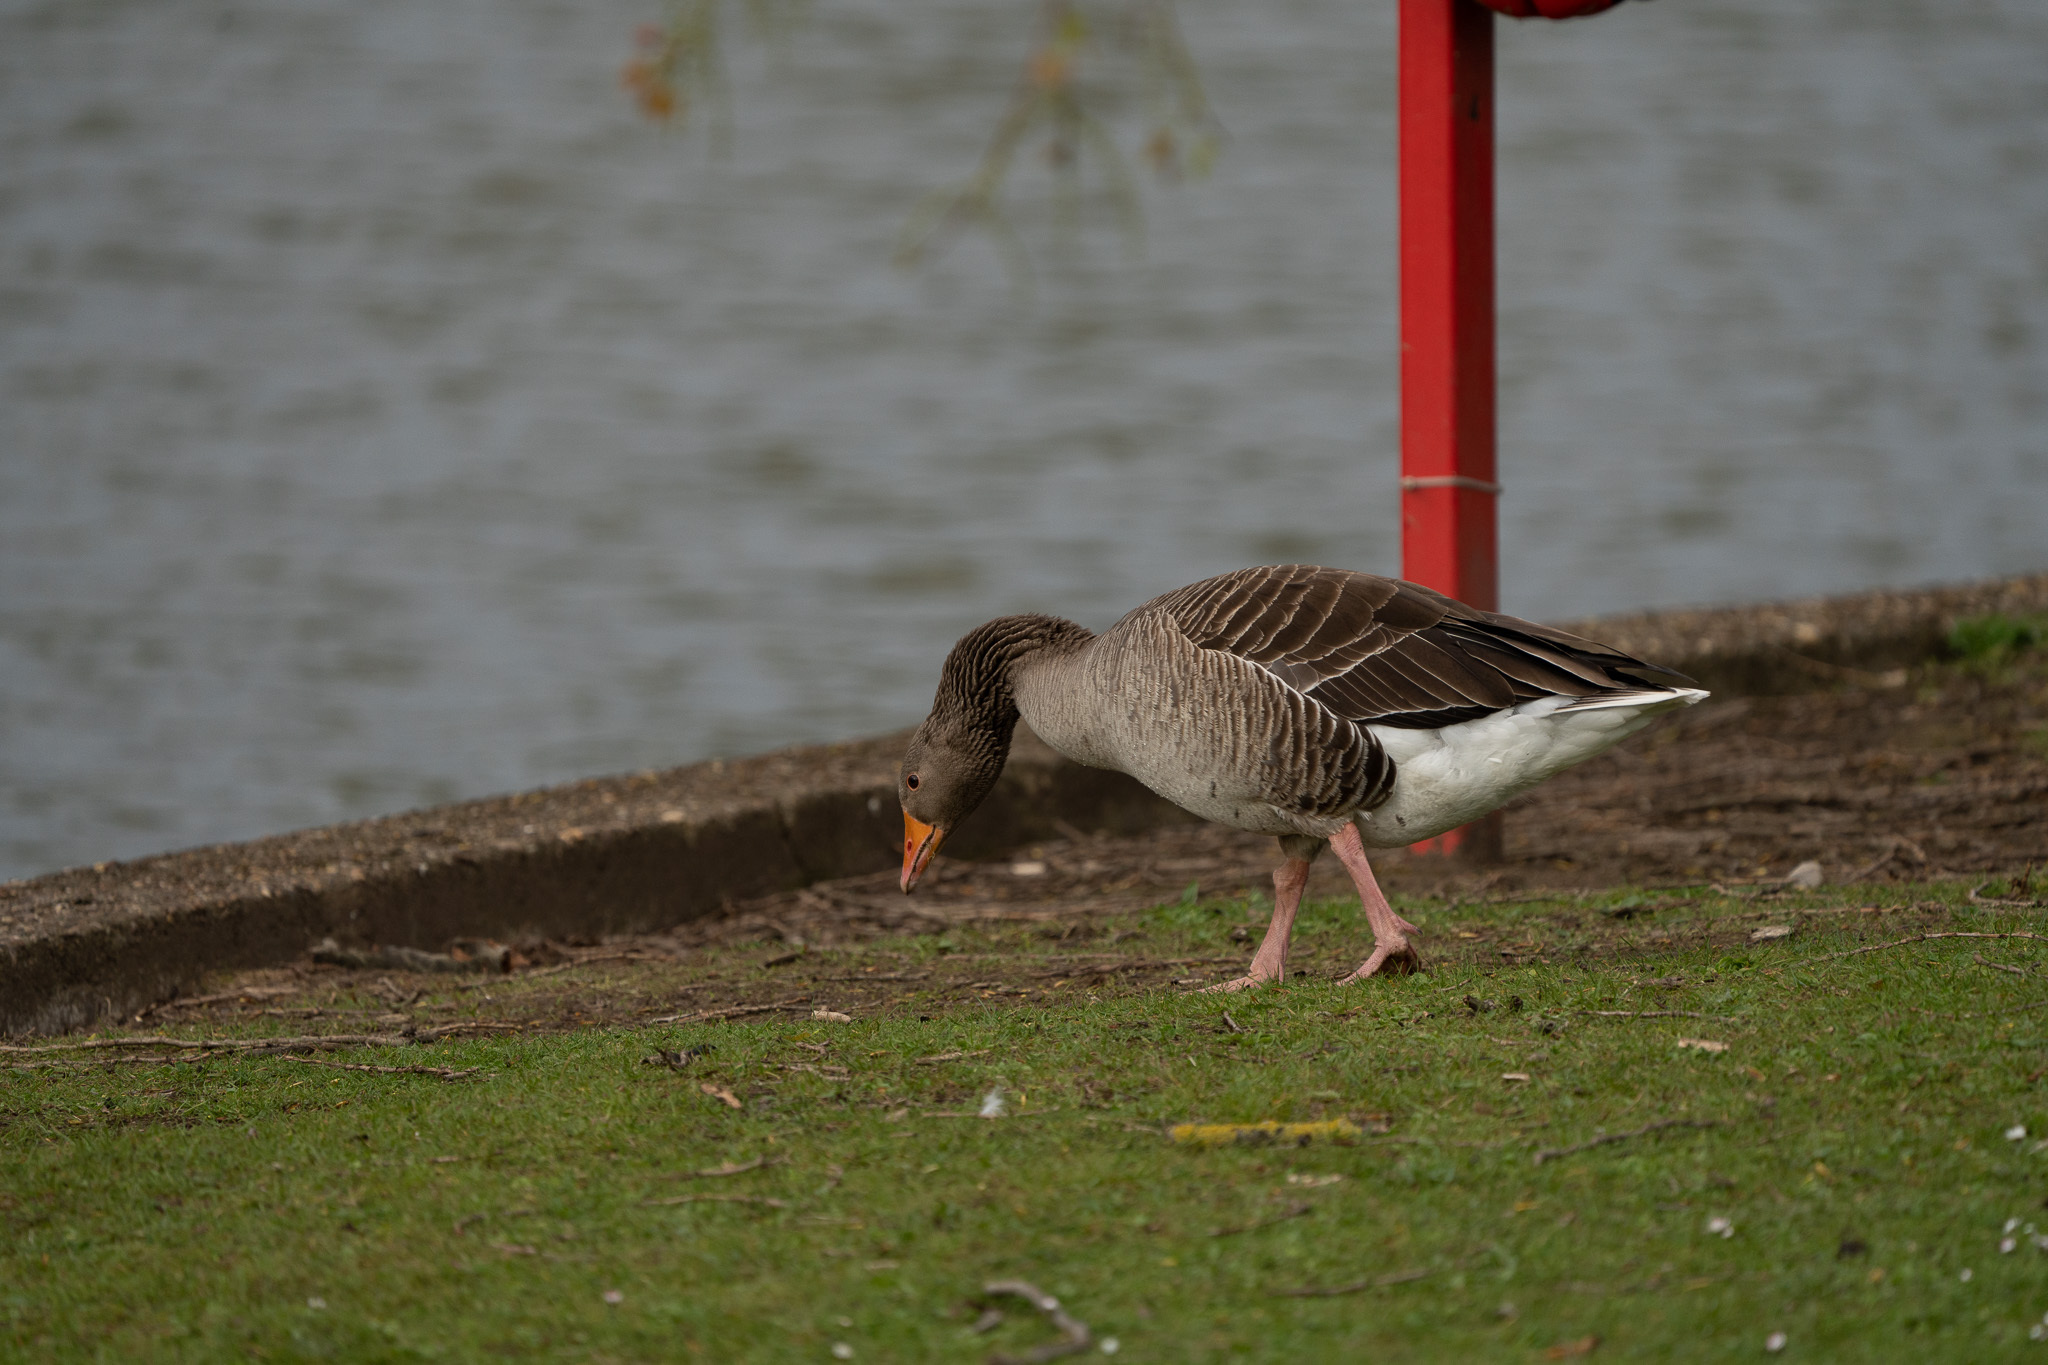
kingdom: Animalia
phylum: Chordata
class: Aves
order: Anseriformes
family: Anatidae
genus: Anser
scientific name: Anser anser
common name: Greylag goose
